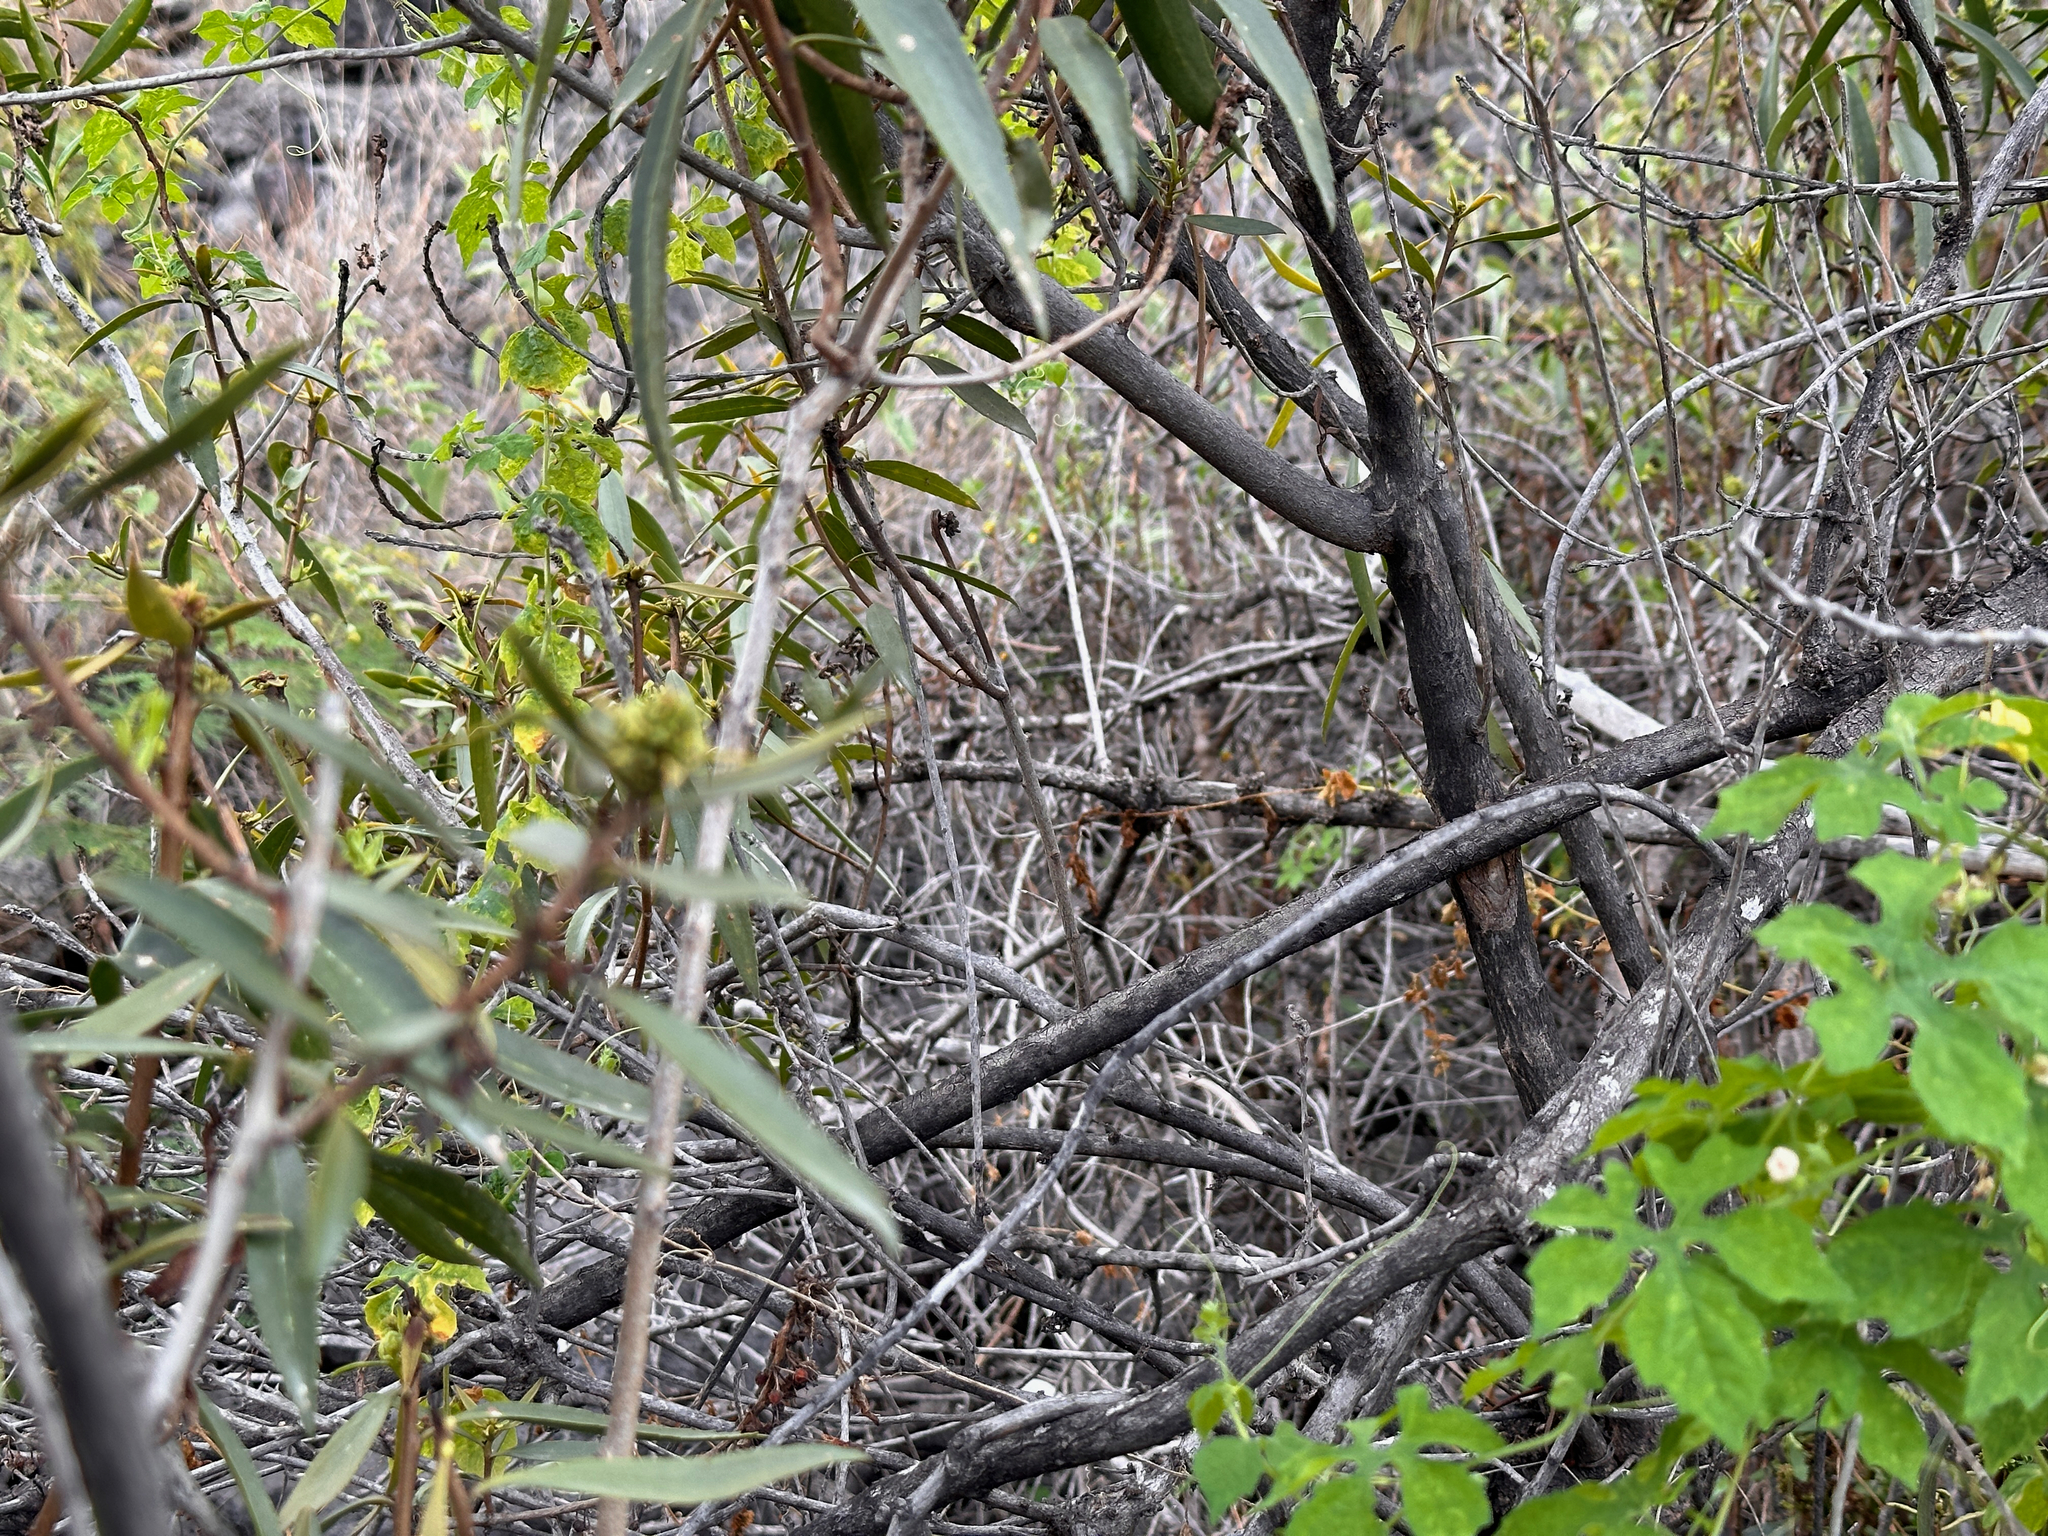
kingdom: Plantae
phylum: Tracheophyta
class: Magnoliopsida
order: Lamiales
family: Scrophulariaceae
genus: Myoporum
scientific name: Myoporum sandwicense
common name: Bastard-sandalwood
